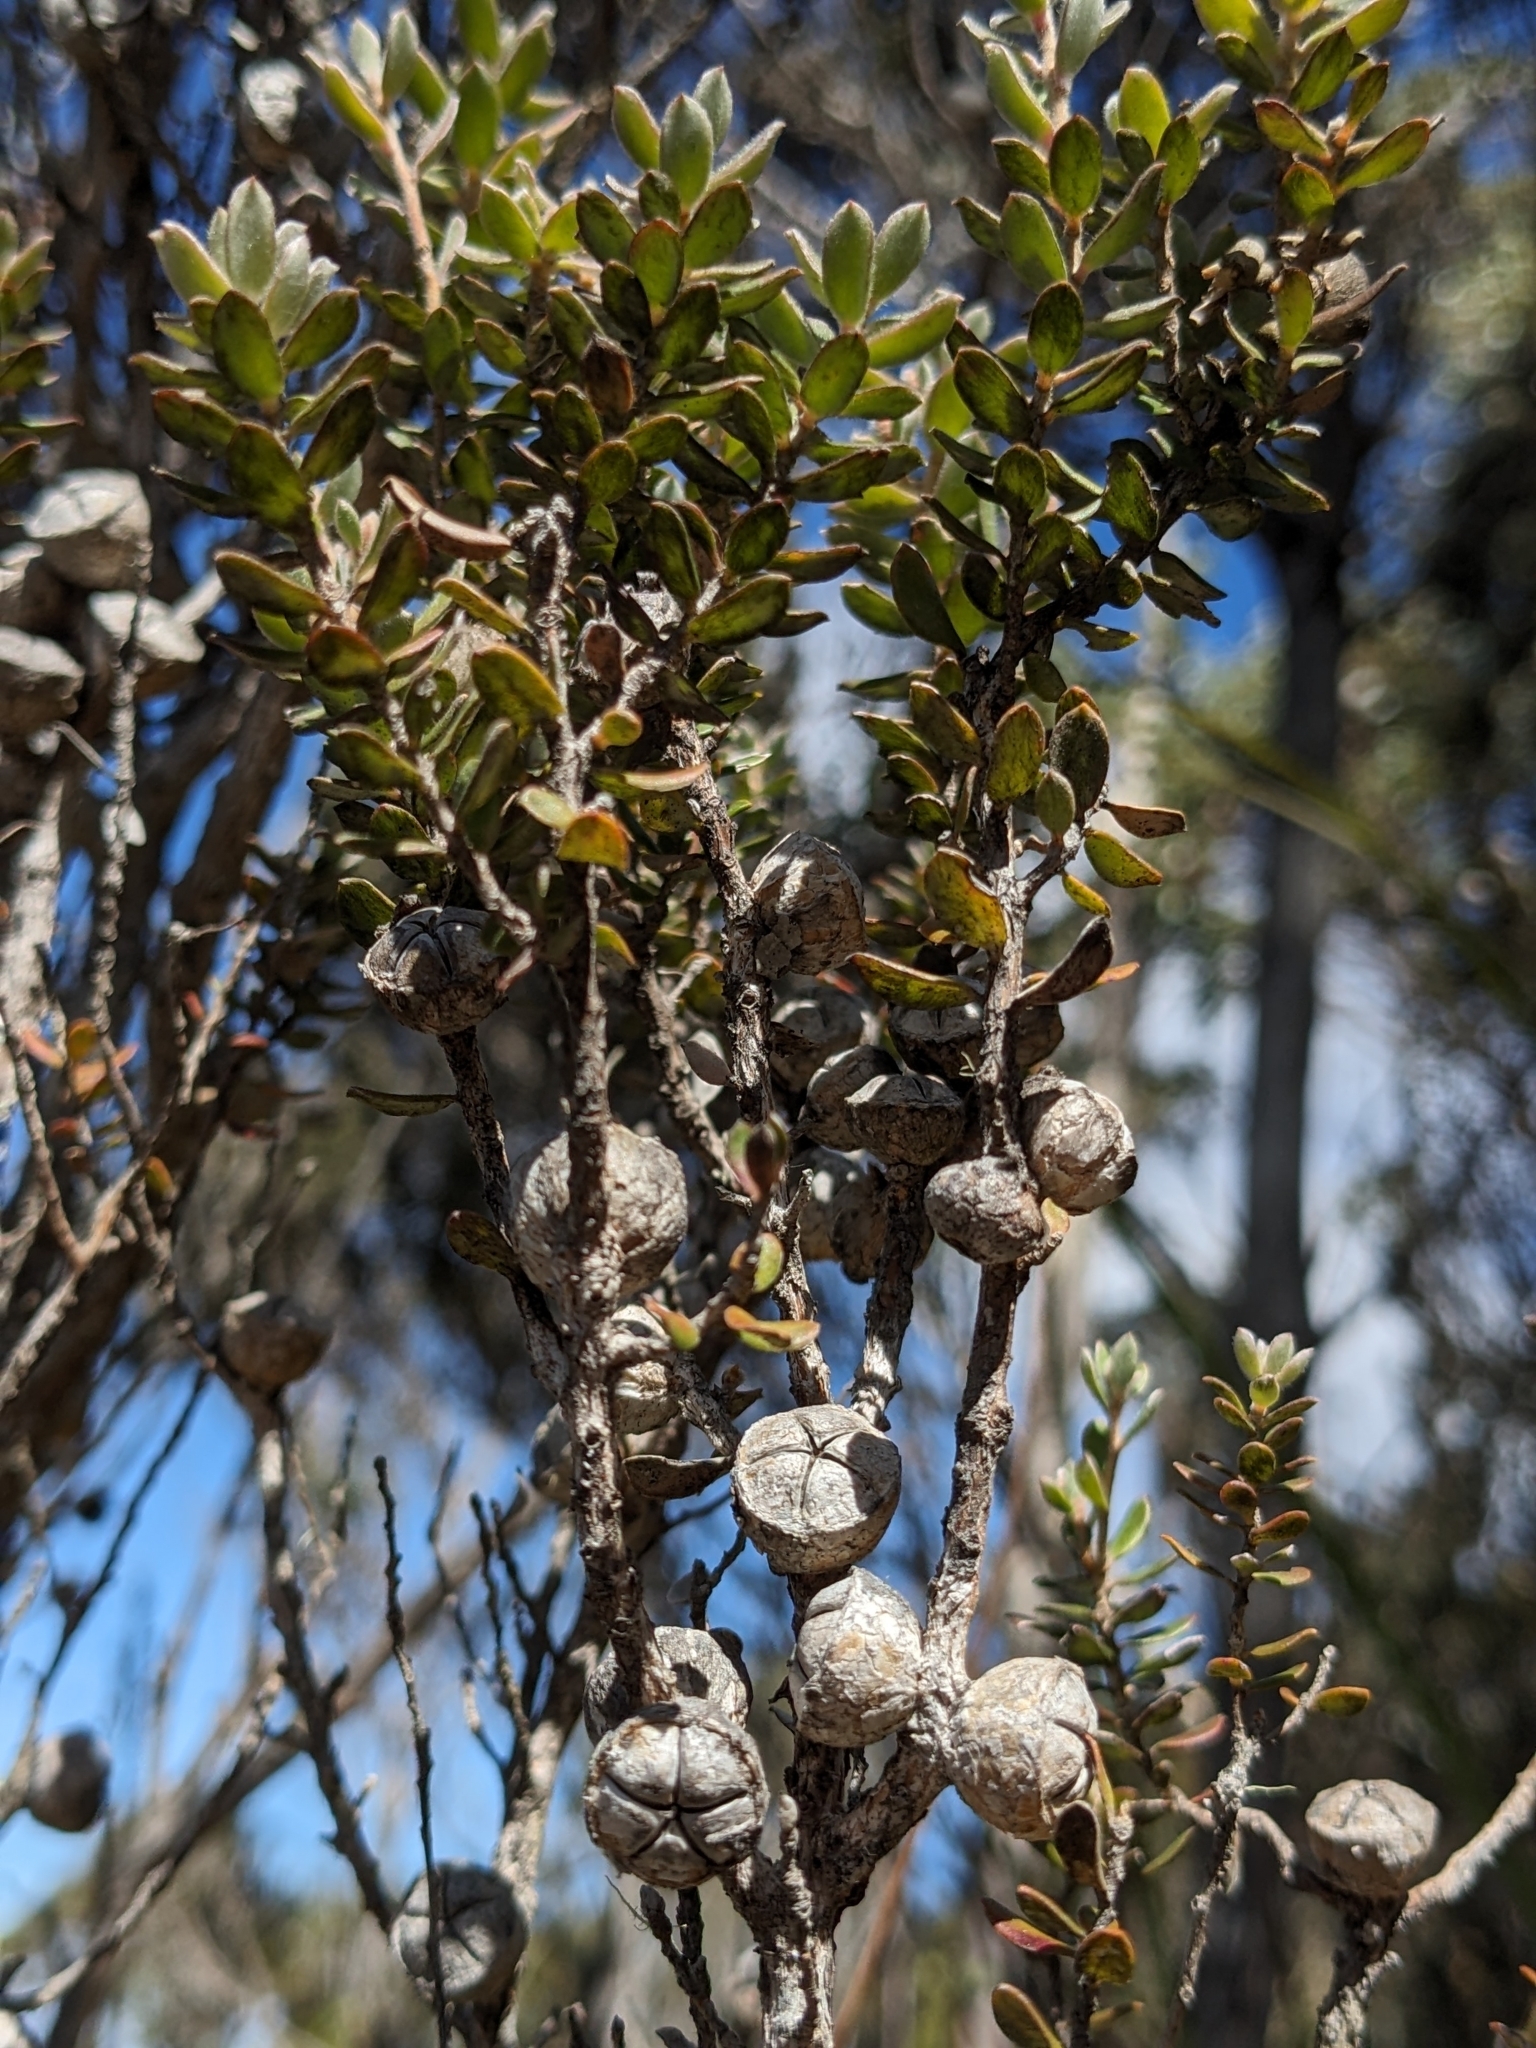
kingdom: Plantae
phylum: Tracheophyta
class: Magnoliopsida
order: Myrtales
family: Myrtaceae
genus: Leptospermum
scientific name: Leptospermum lanigerum
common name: Woolly tea-tree
